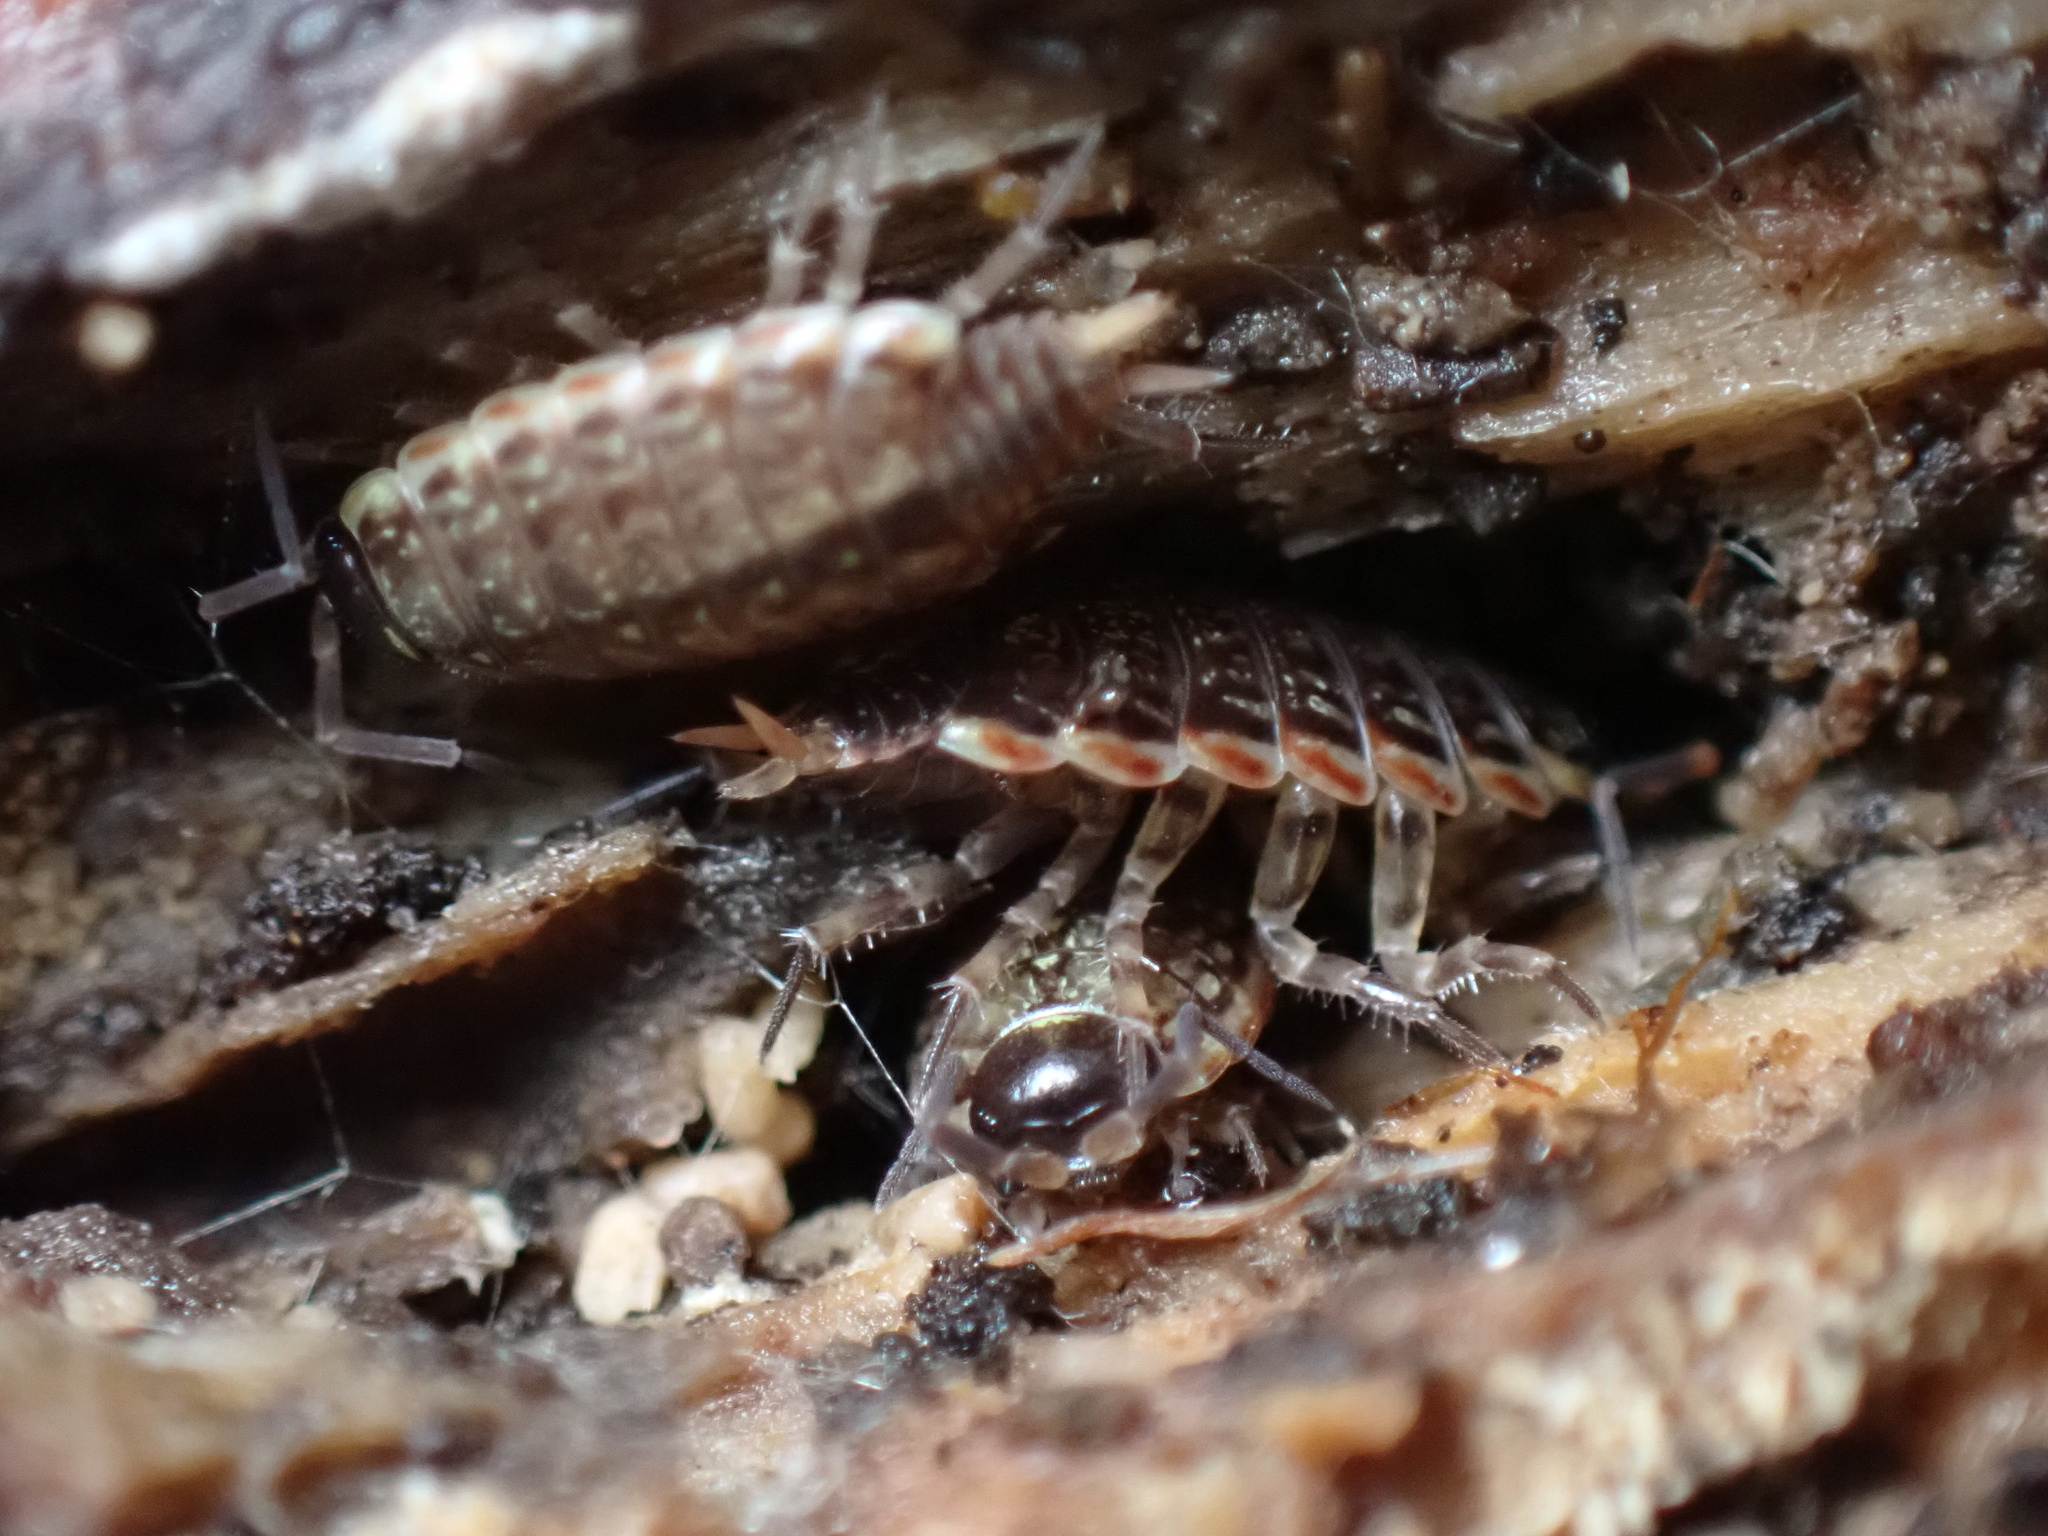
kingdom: Animalia
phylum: Arthropoda
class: Malacostraca
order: Isopoda
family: Philosciidae
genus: Philoscia
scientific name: Philoscia muscorum
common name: Common striped woodlouse
